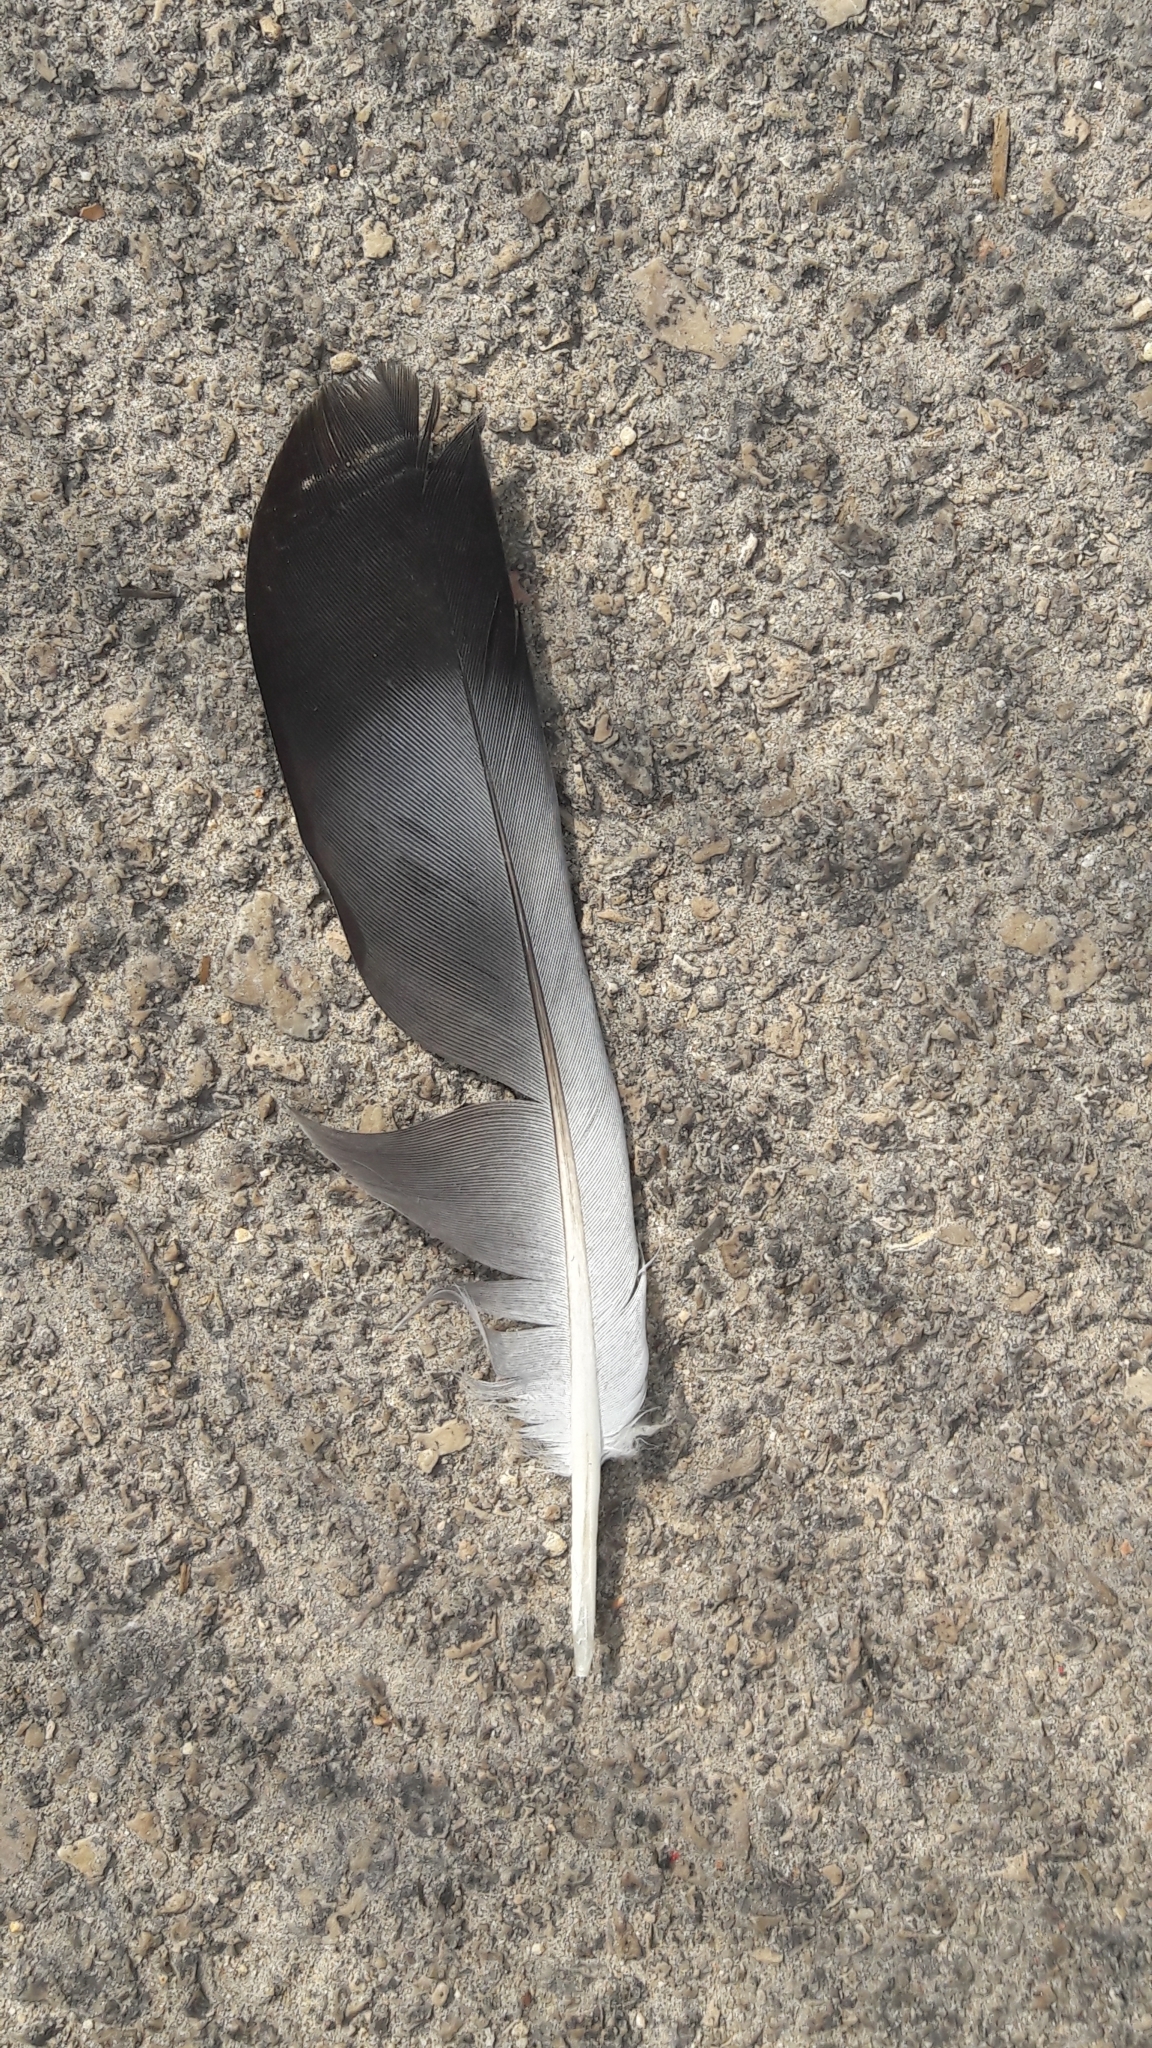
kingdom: Animalia
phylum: Chordata
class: Aves
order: Columbiformes
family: Columbidae
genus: Columba
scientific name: Columba livia
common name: Rock pigeon
